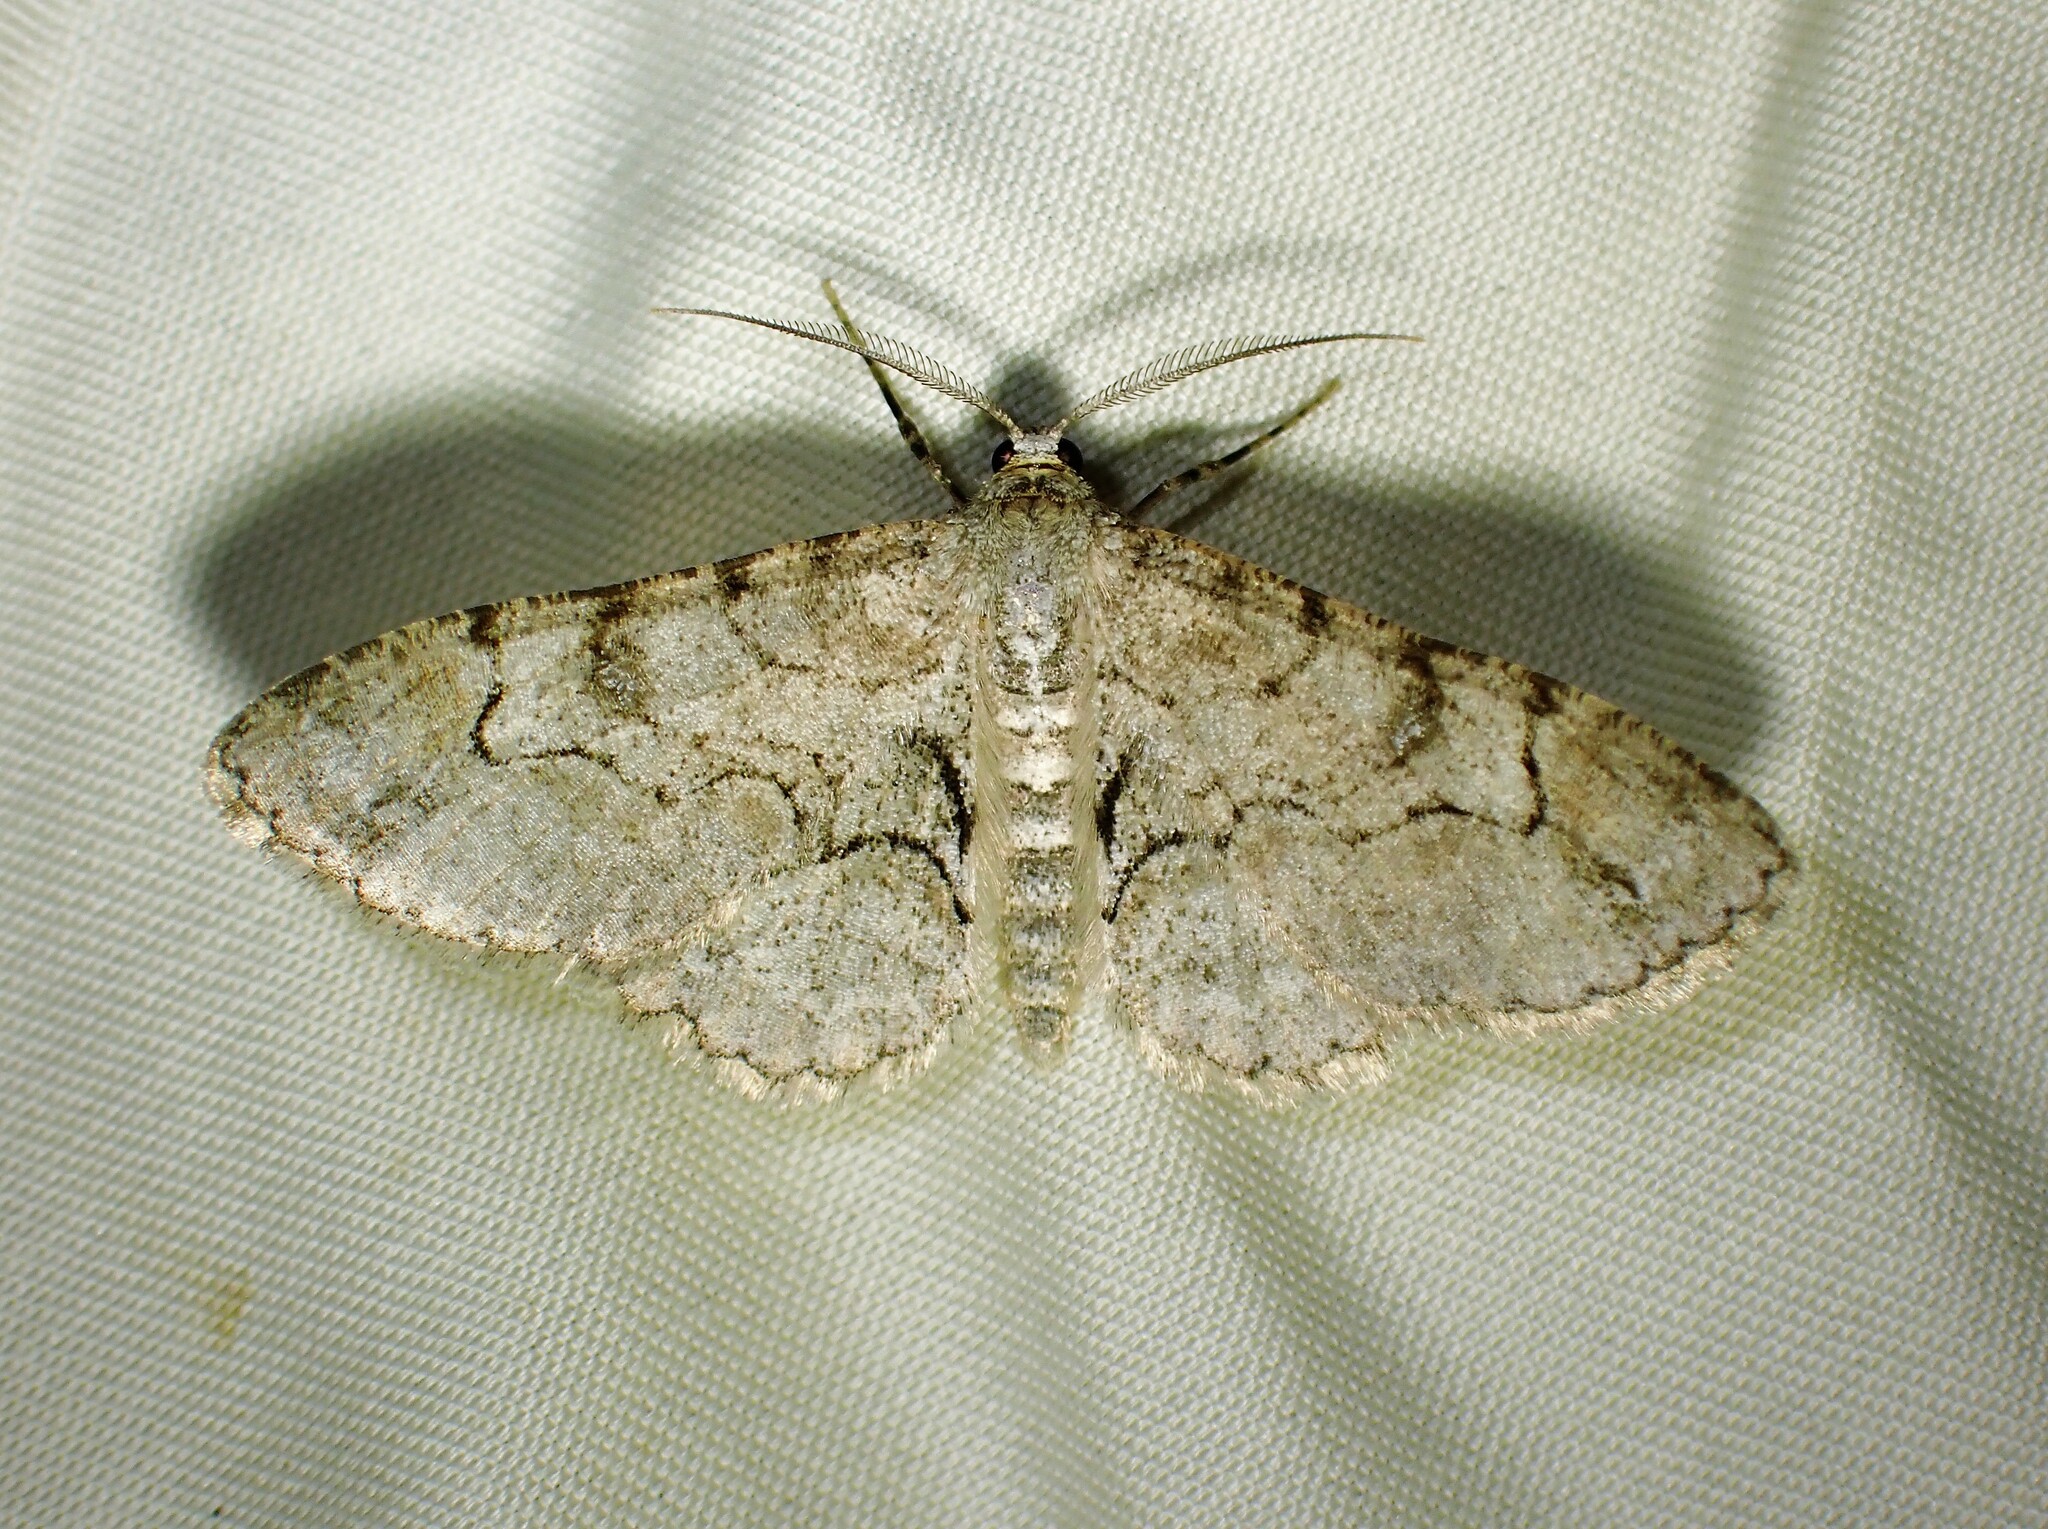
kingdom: Animalia
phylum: Arthropoda
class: Insecta
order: Lepidoptera
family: Geometridae
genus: Iridopsis
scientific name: Iridopsis larvaria
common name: Bent-line gray
